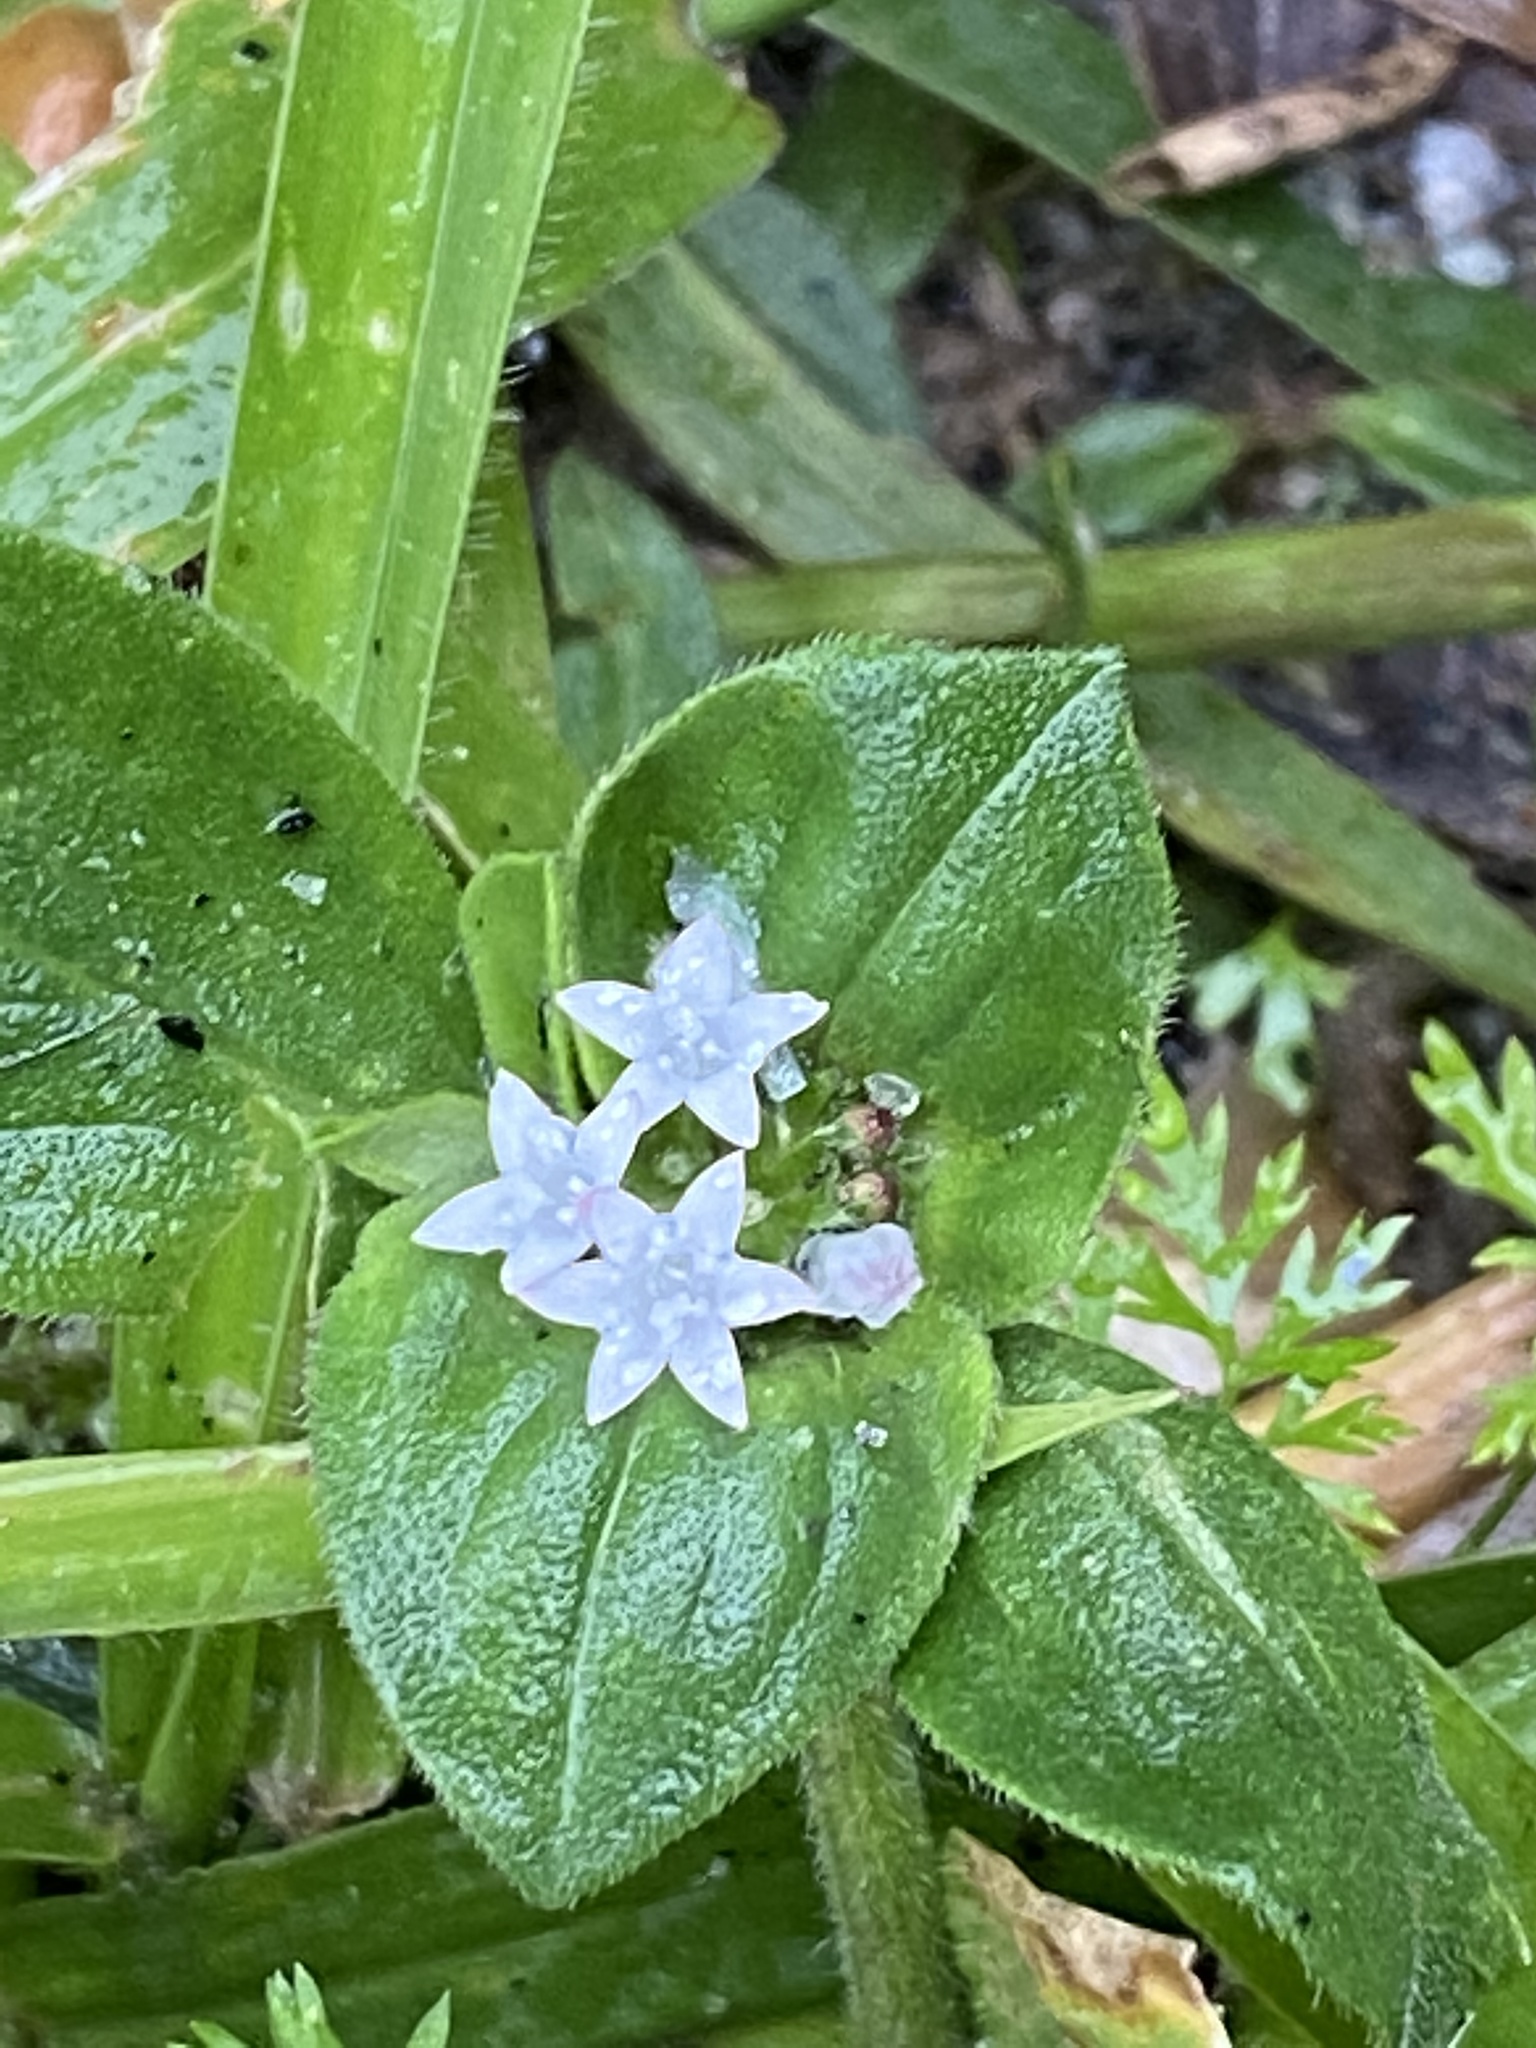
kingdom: Plantae
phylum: Tracheophyta
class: Magnoliopsida
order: Gentianales
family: Rubiaceae
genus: Richardia
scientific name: Richardia brasiliensis
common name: Tropical mexican clover
